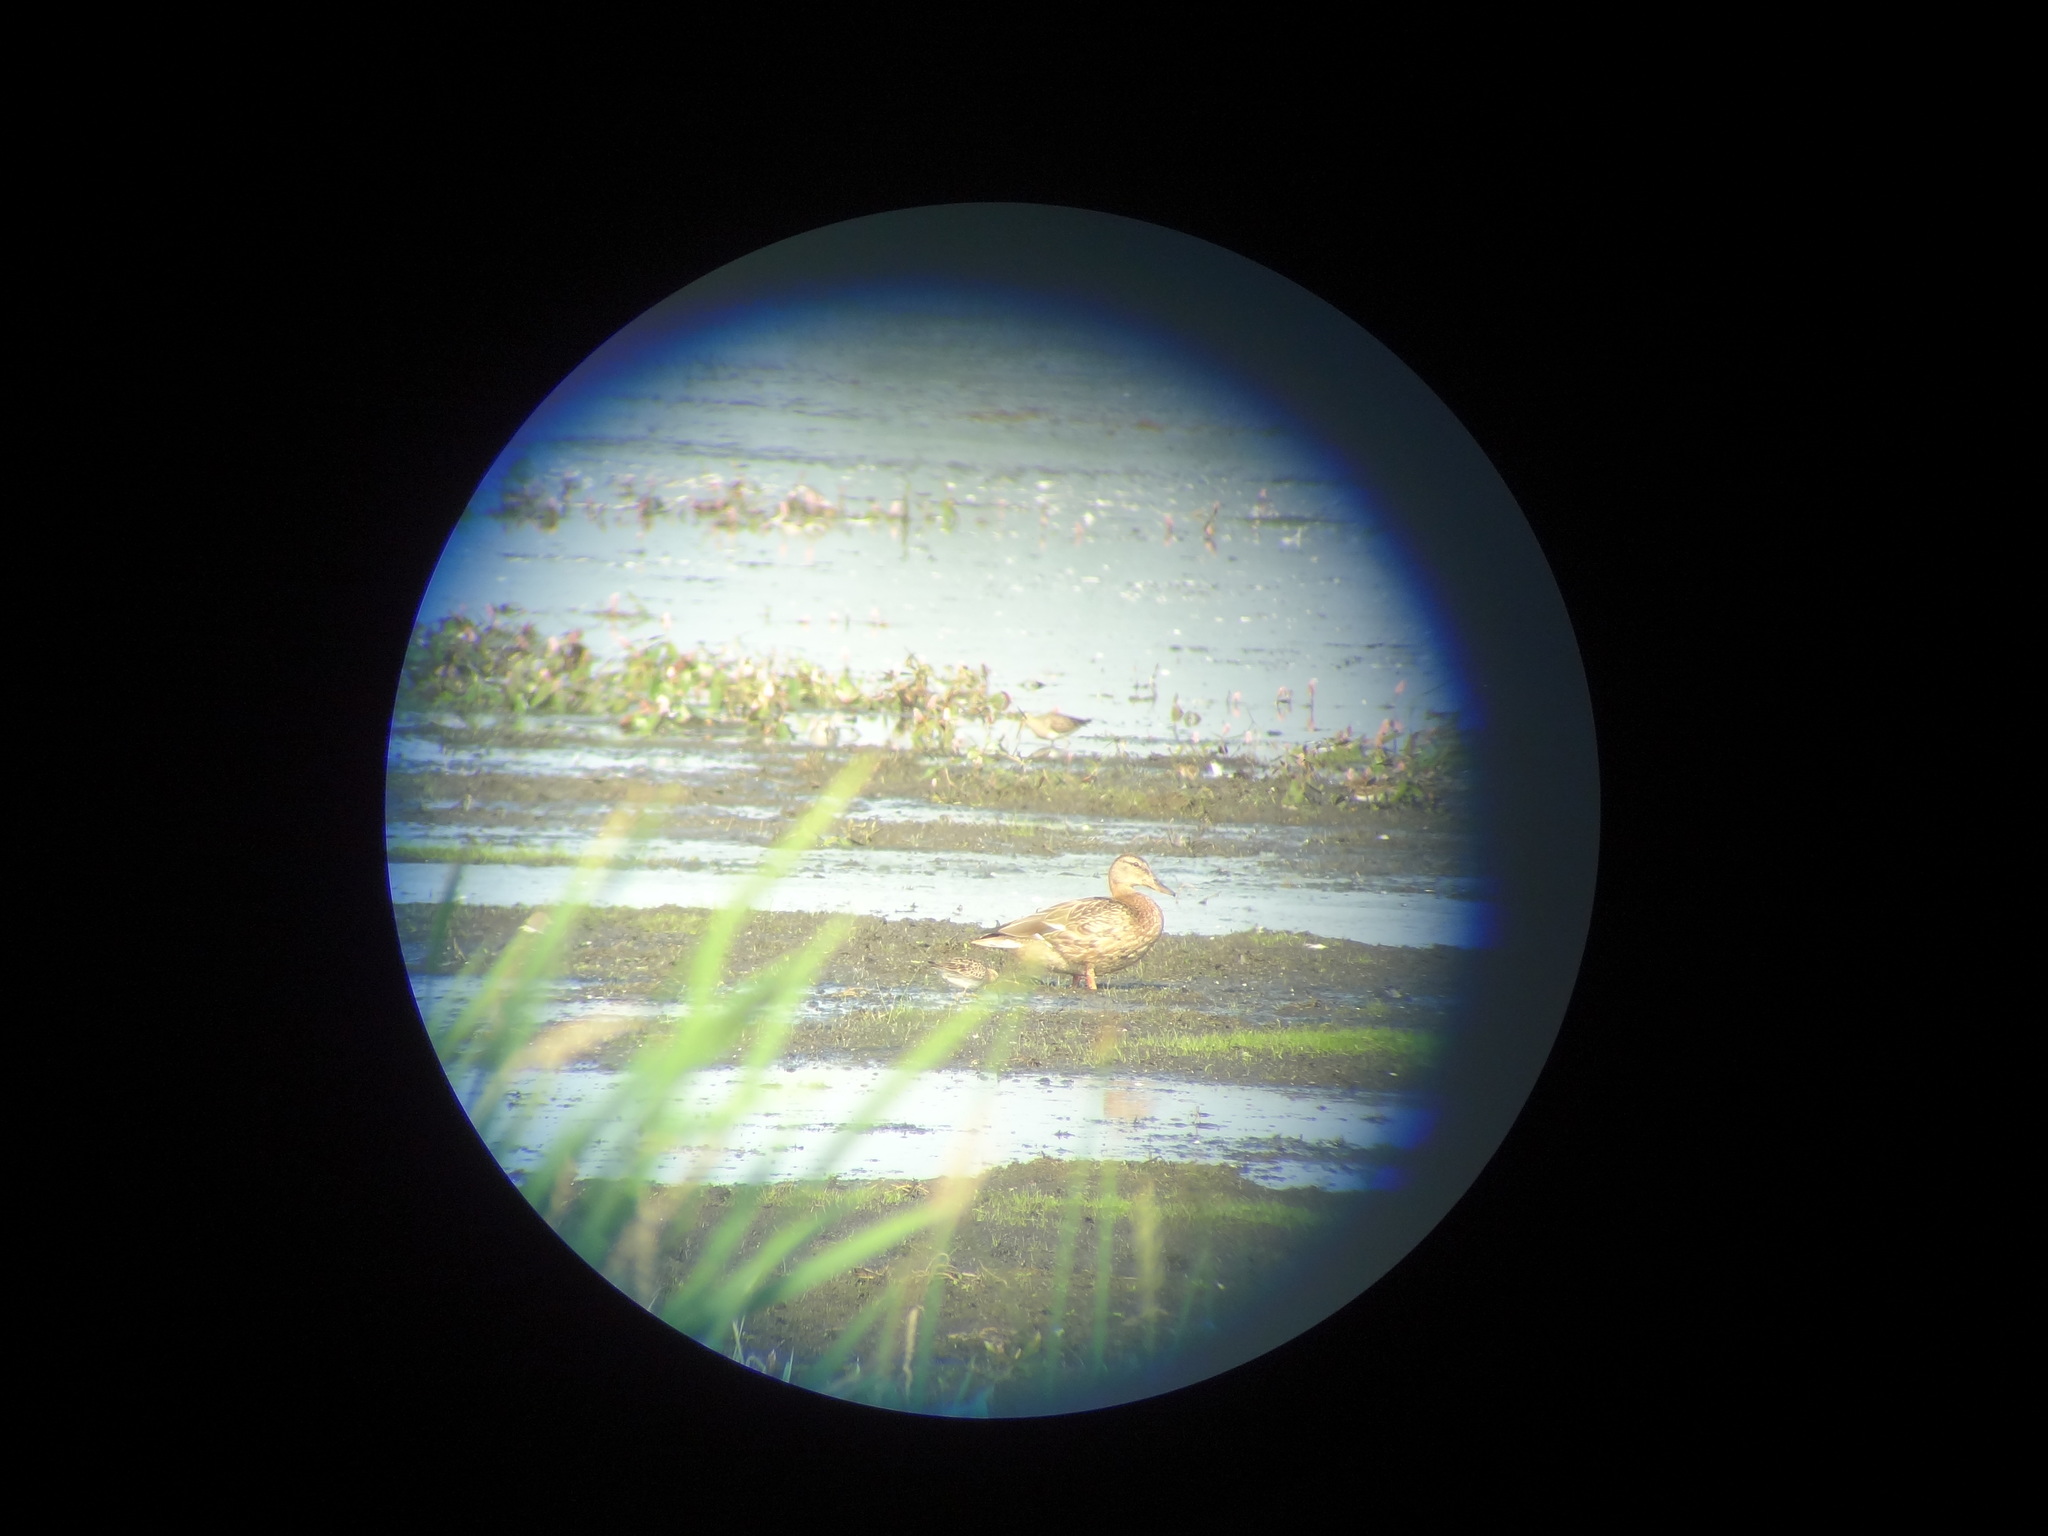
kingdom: Animalia
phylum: Chordata
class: Aves
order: Charadriiformes
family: Scolopacidae
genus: Calidris
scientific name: Calidris bairdii
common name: Baird's sandpiper
